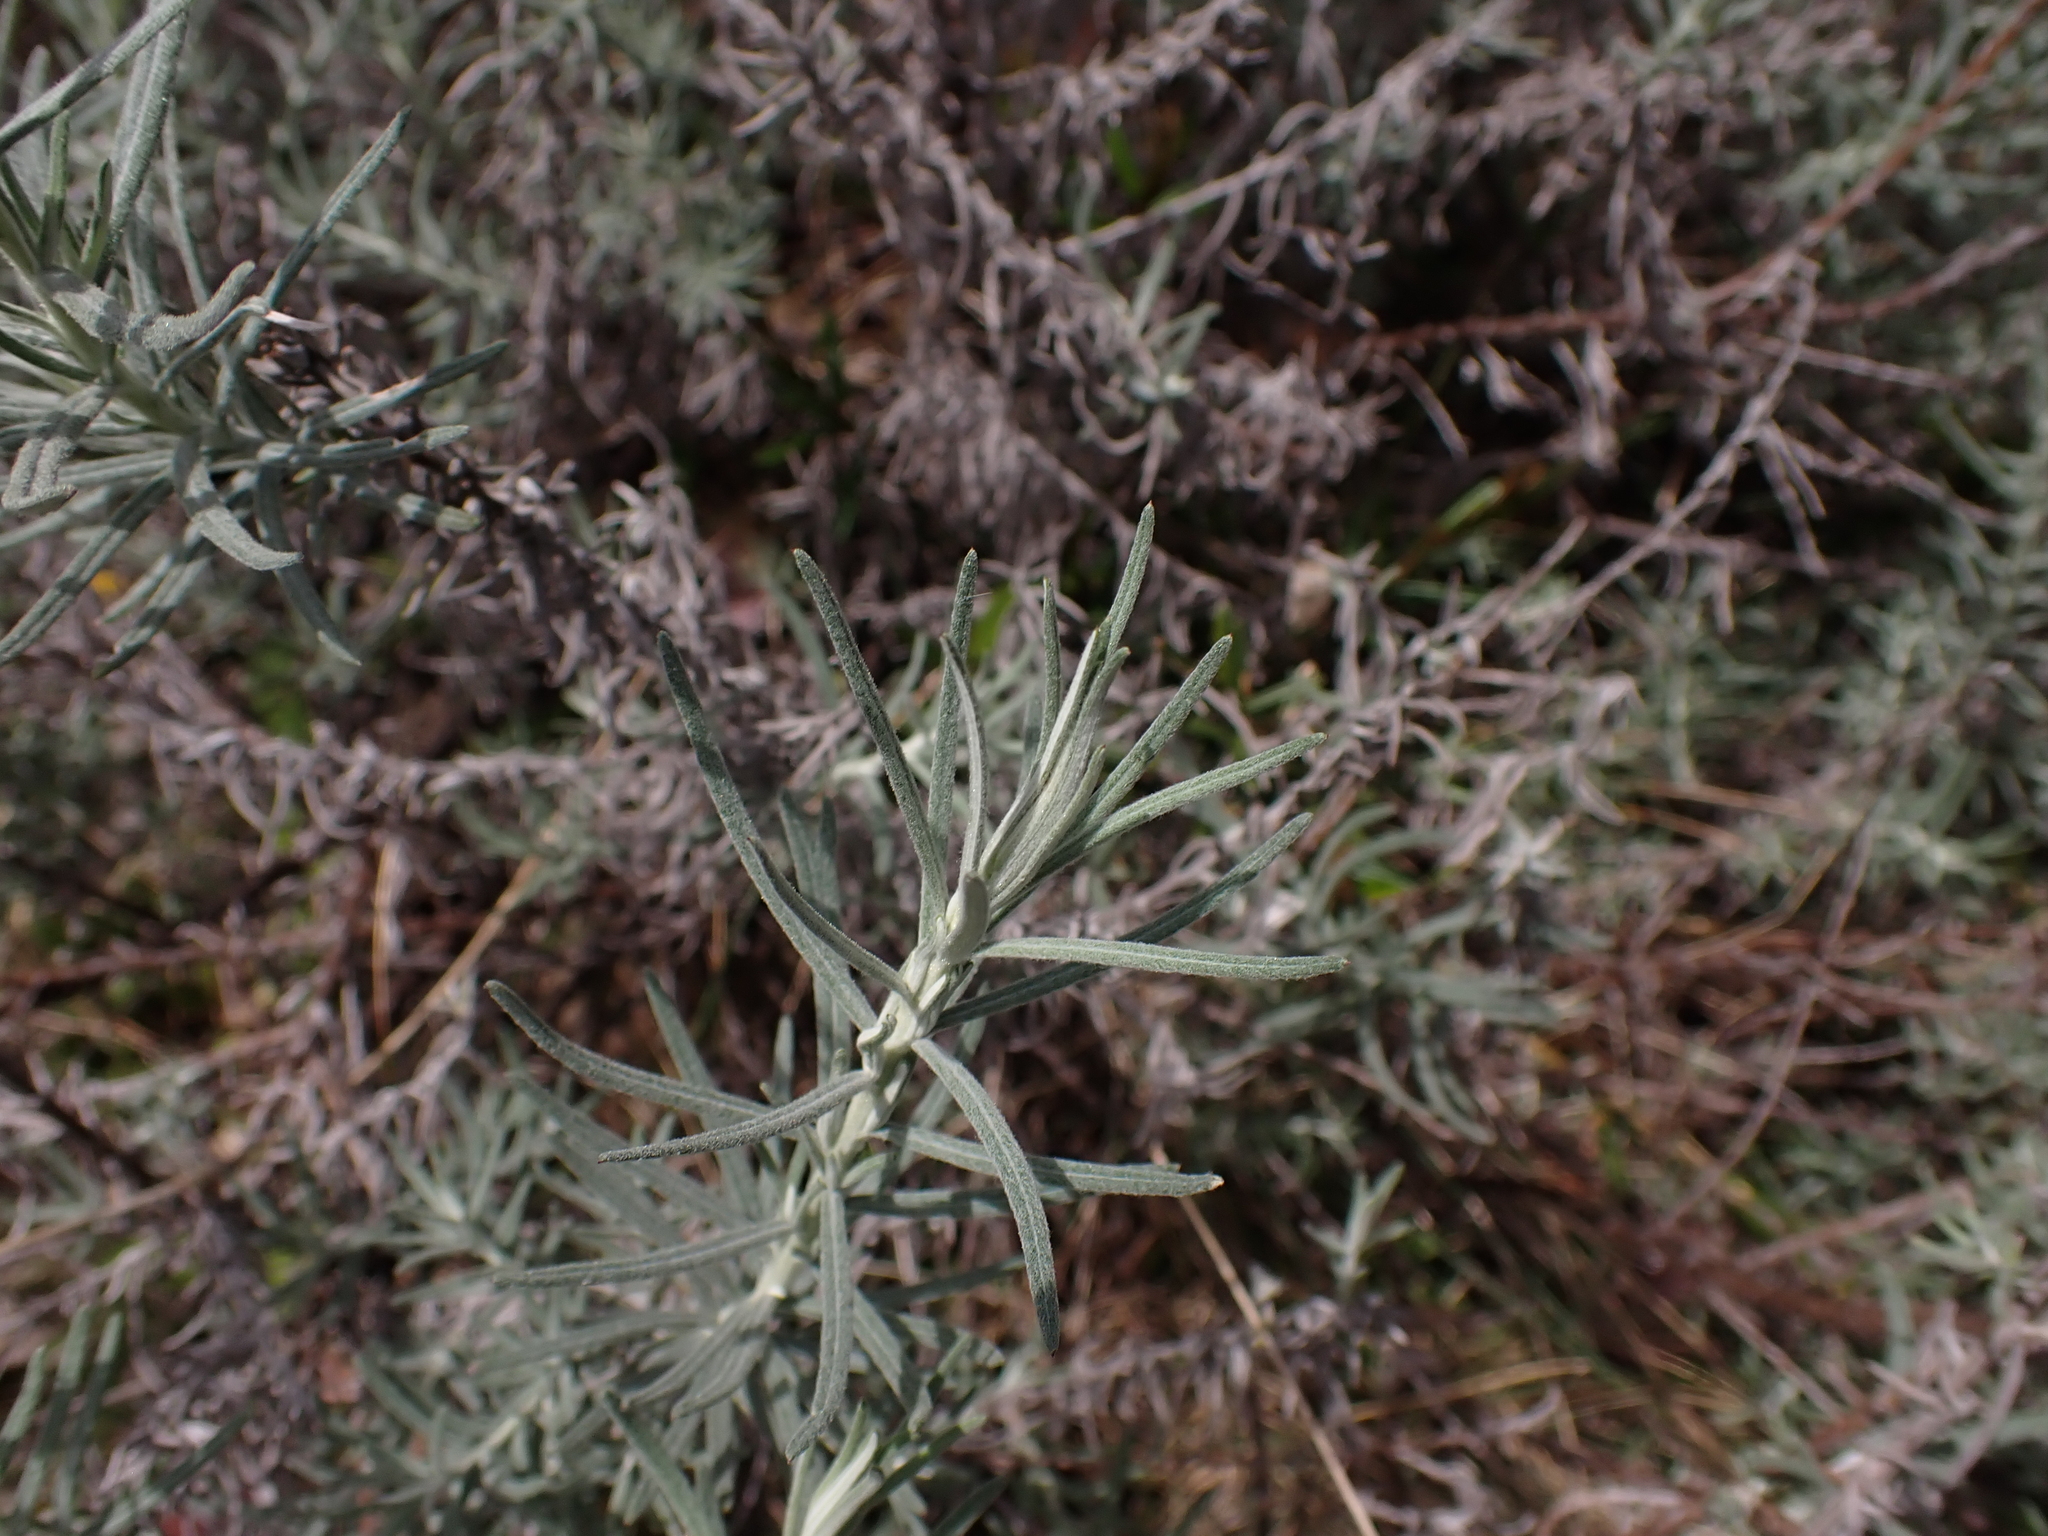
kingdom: Plantae
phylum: Tracheophyta
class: Magnoliopsida
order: Asterales
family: Asteraceae
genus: Cassinia
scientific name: Cassinia monticola
